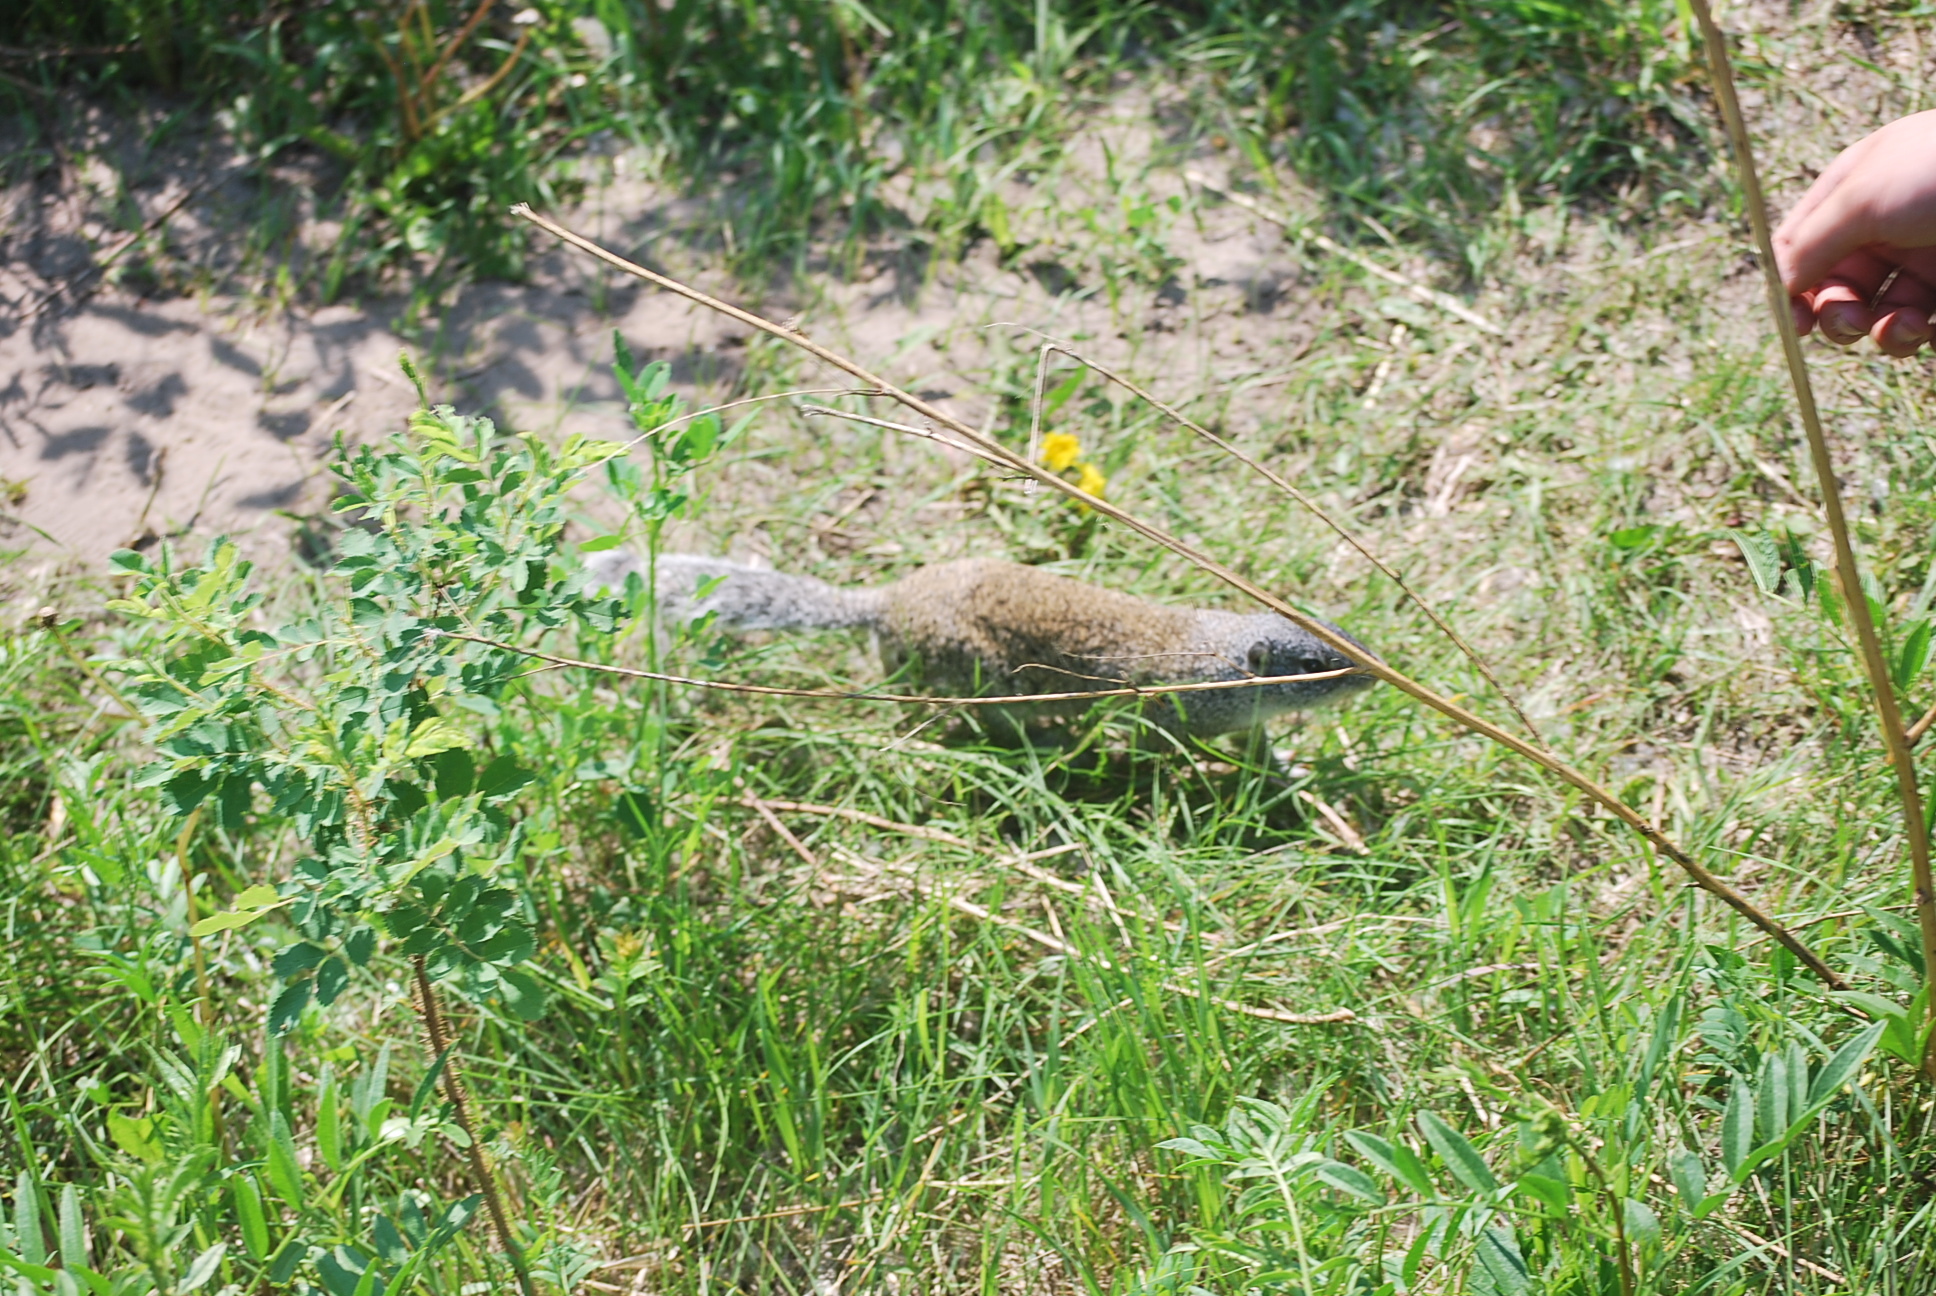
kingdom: Animalia
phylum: Chordata
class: Mammalia
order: Rodentia
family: Sciuridae
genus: Poliocitellus
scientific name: Poliocitellus franklinii
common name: Franklin's ground squirrel
